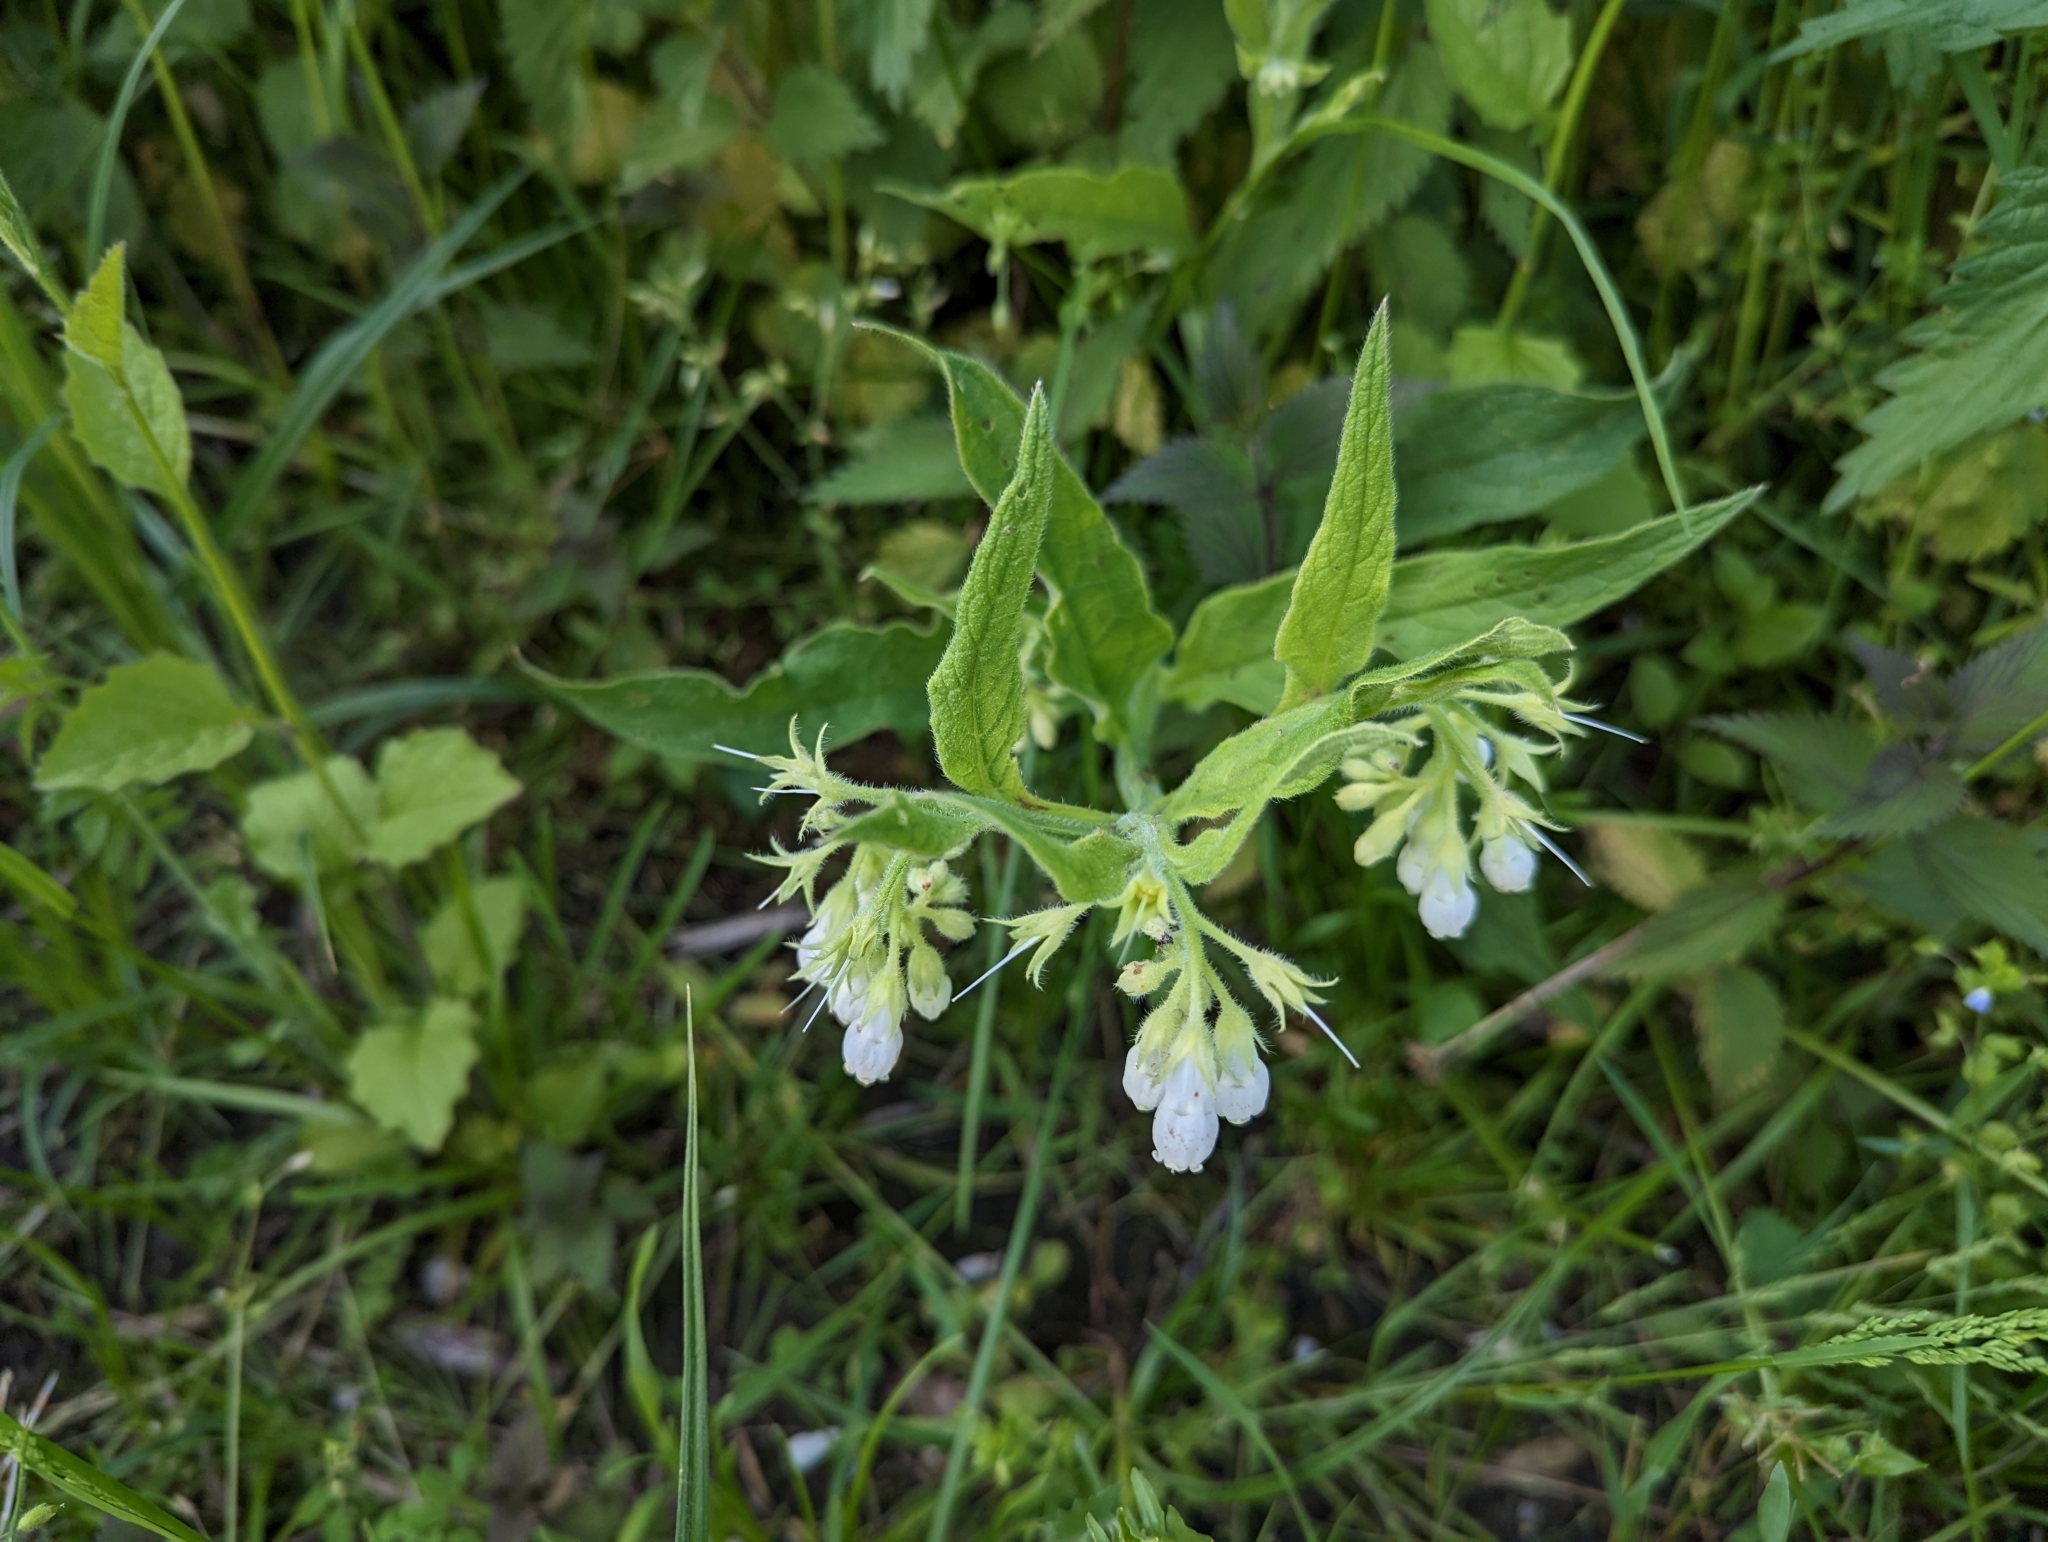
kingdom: Plantae
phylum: Tracheophyta
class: Magnoliopsida
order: Boraginales
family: Boraginaceae
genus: Symphytum
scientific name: Symphytum officinale
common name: Common comfrey
